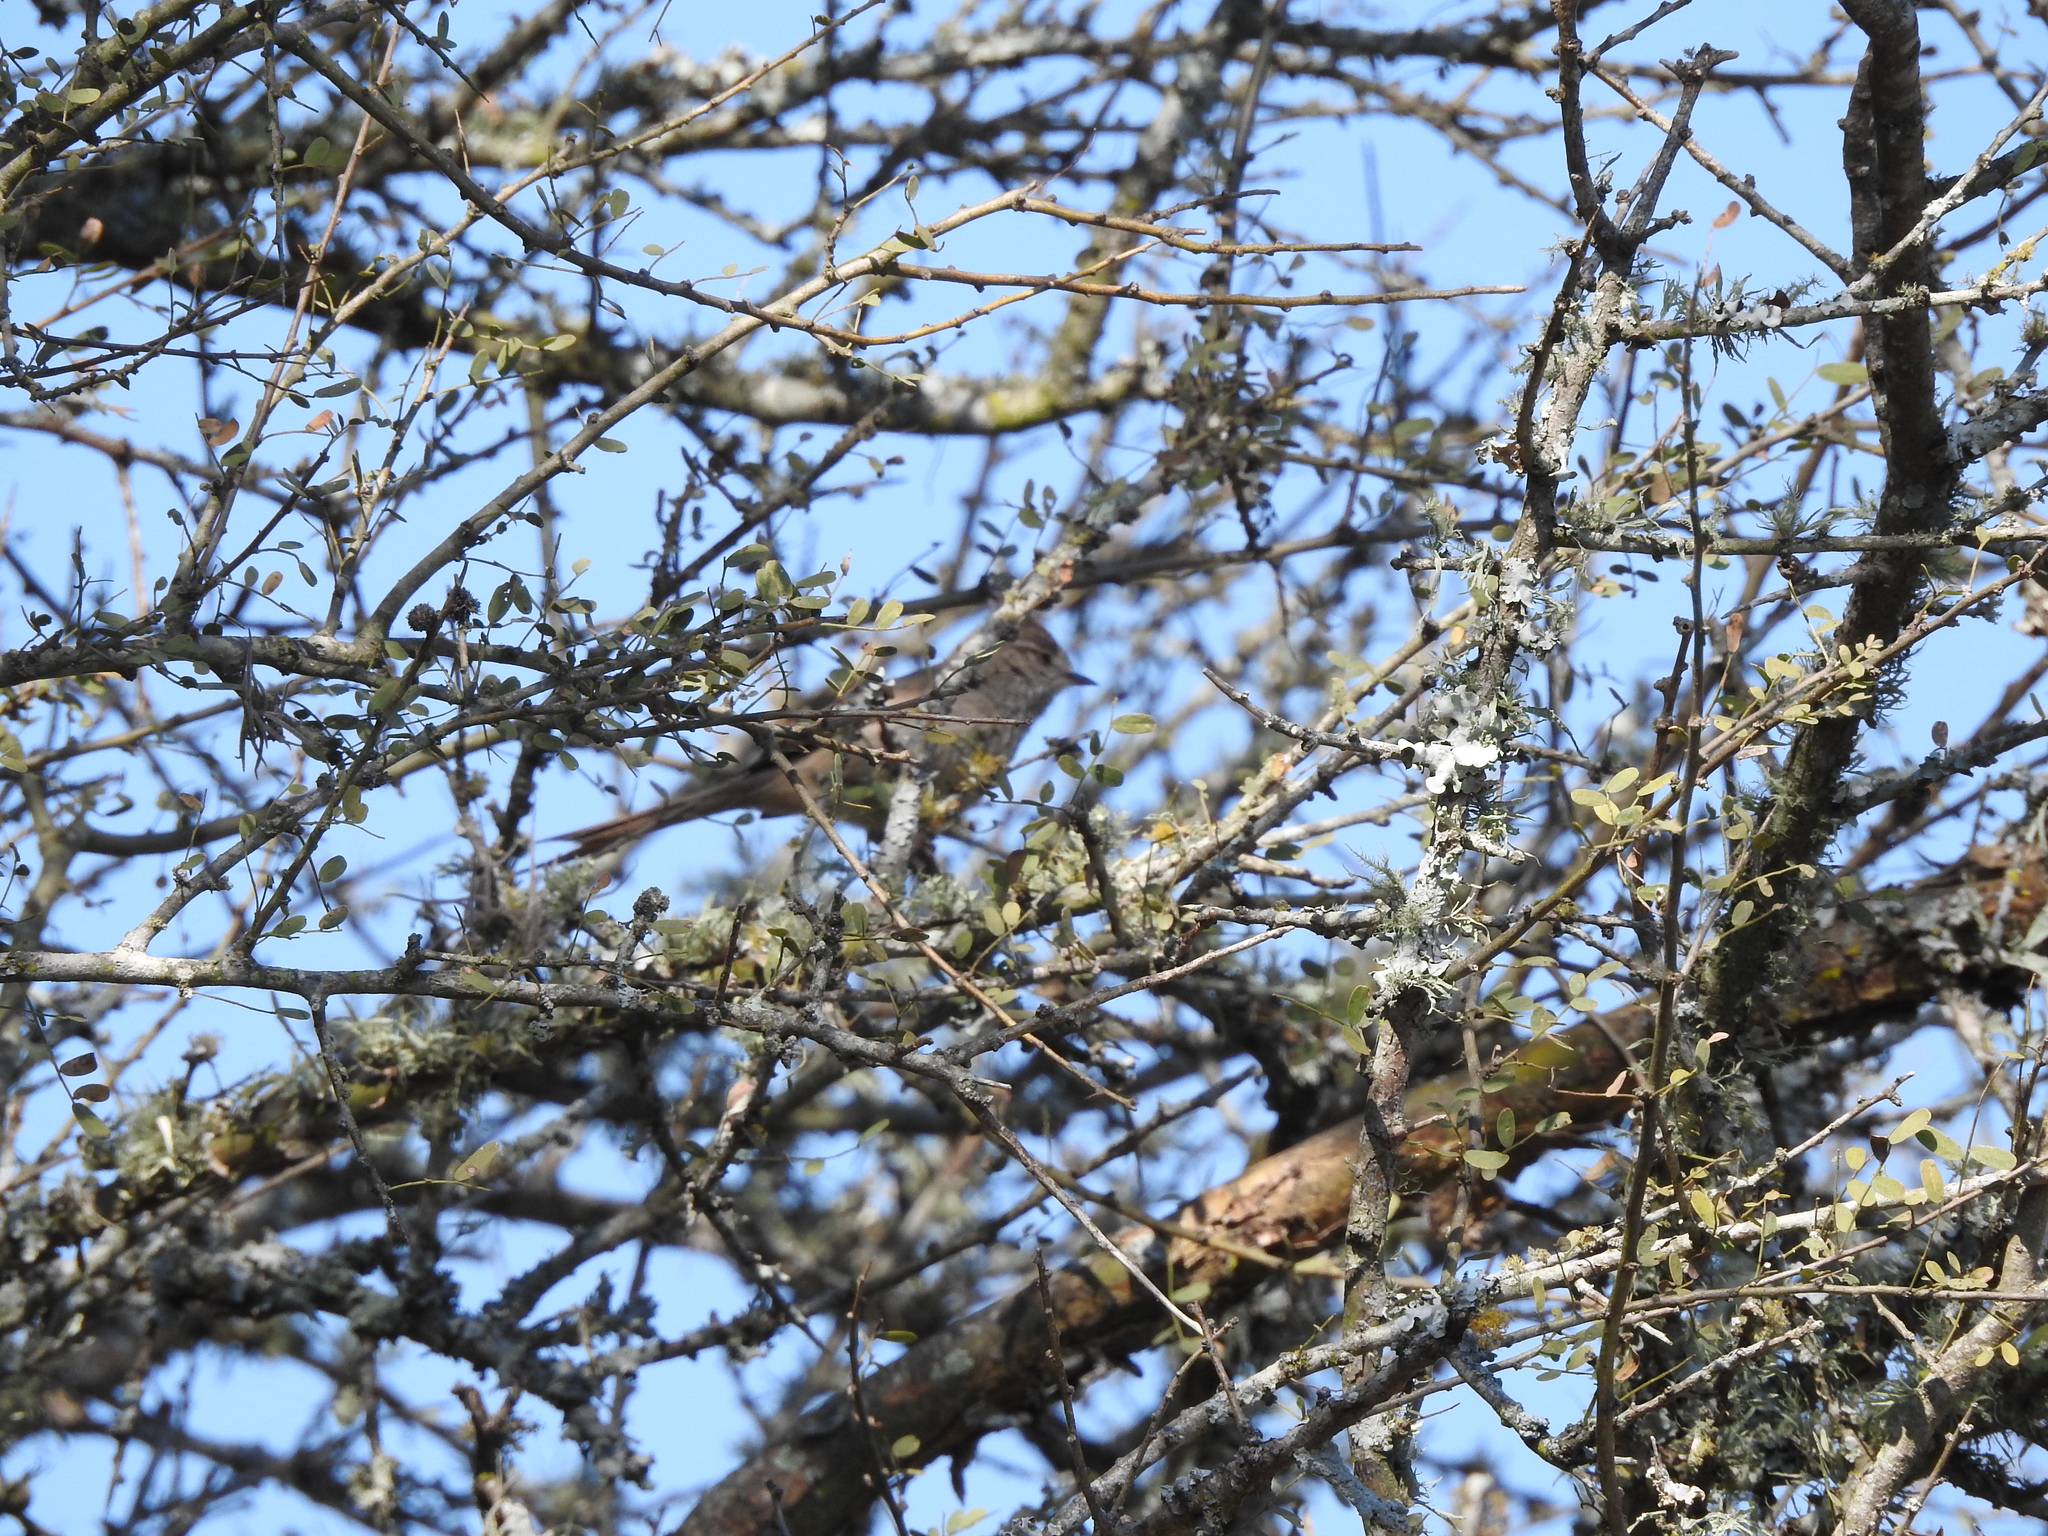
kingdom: Animalia
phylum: Chordata
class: Aves
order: Passeriformes
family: Furnariidae
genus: Leptasthenura
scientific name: Leptasthenura platensis
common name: Tufted tit-spinetail
